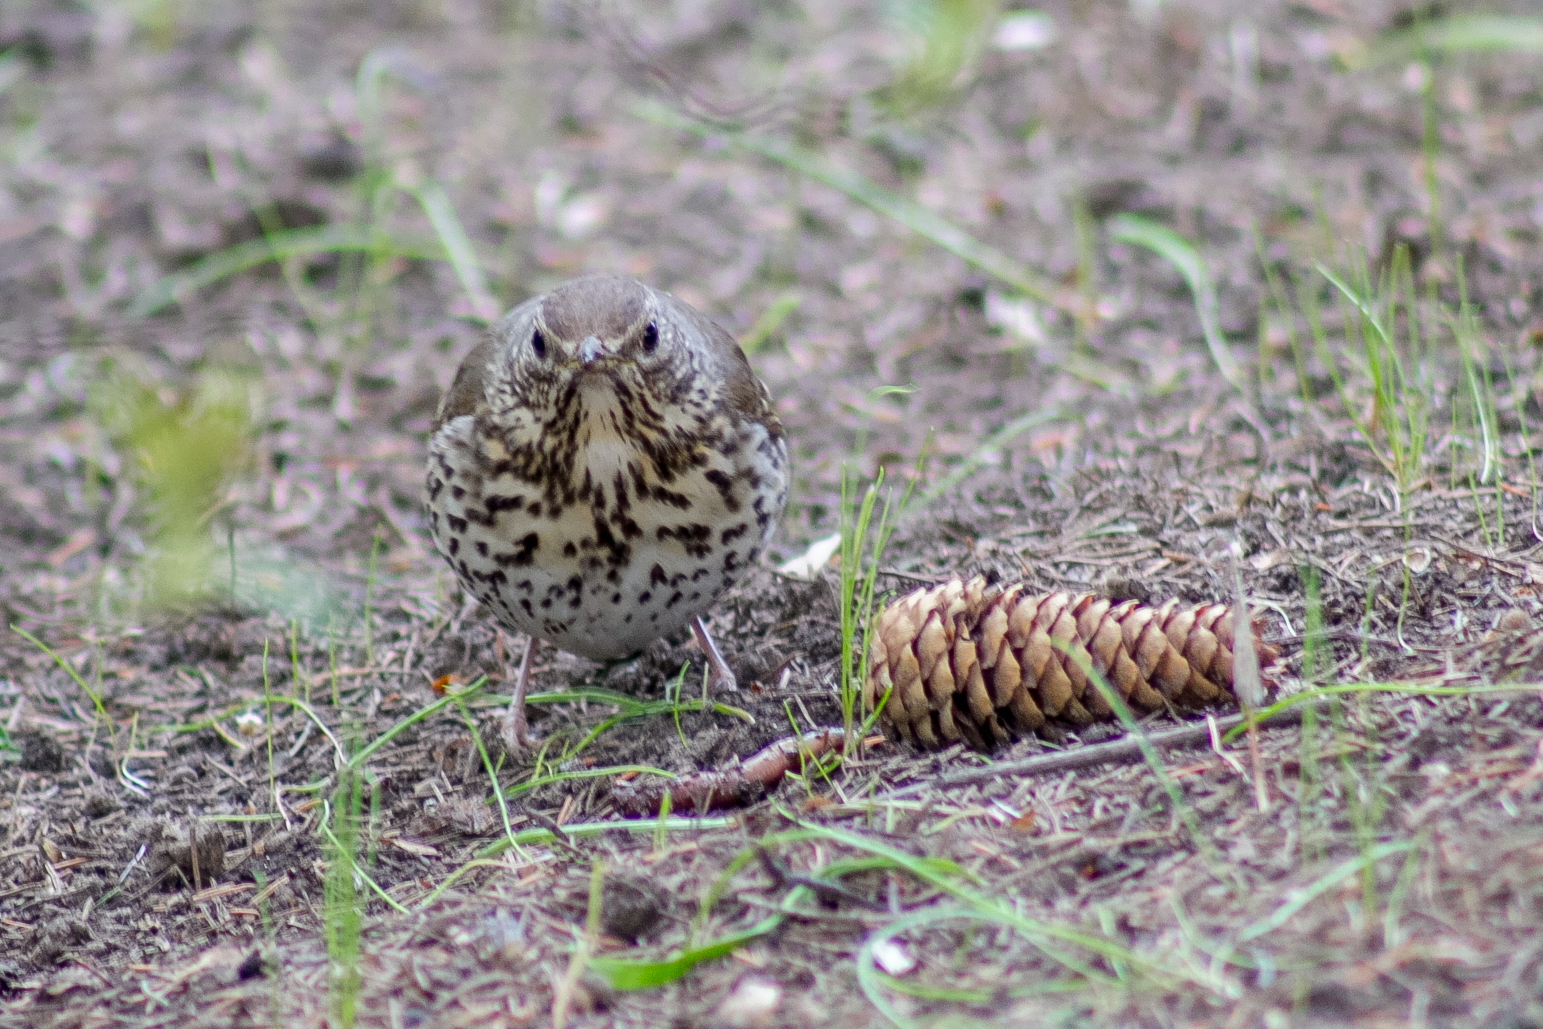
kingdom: Animalia
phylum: Chordata
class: Aves
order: Passeriformes
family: Turdidae
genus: Turdus
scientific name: Turdus philomelos
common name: Song thrush
